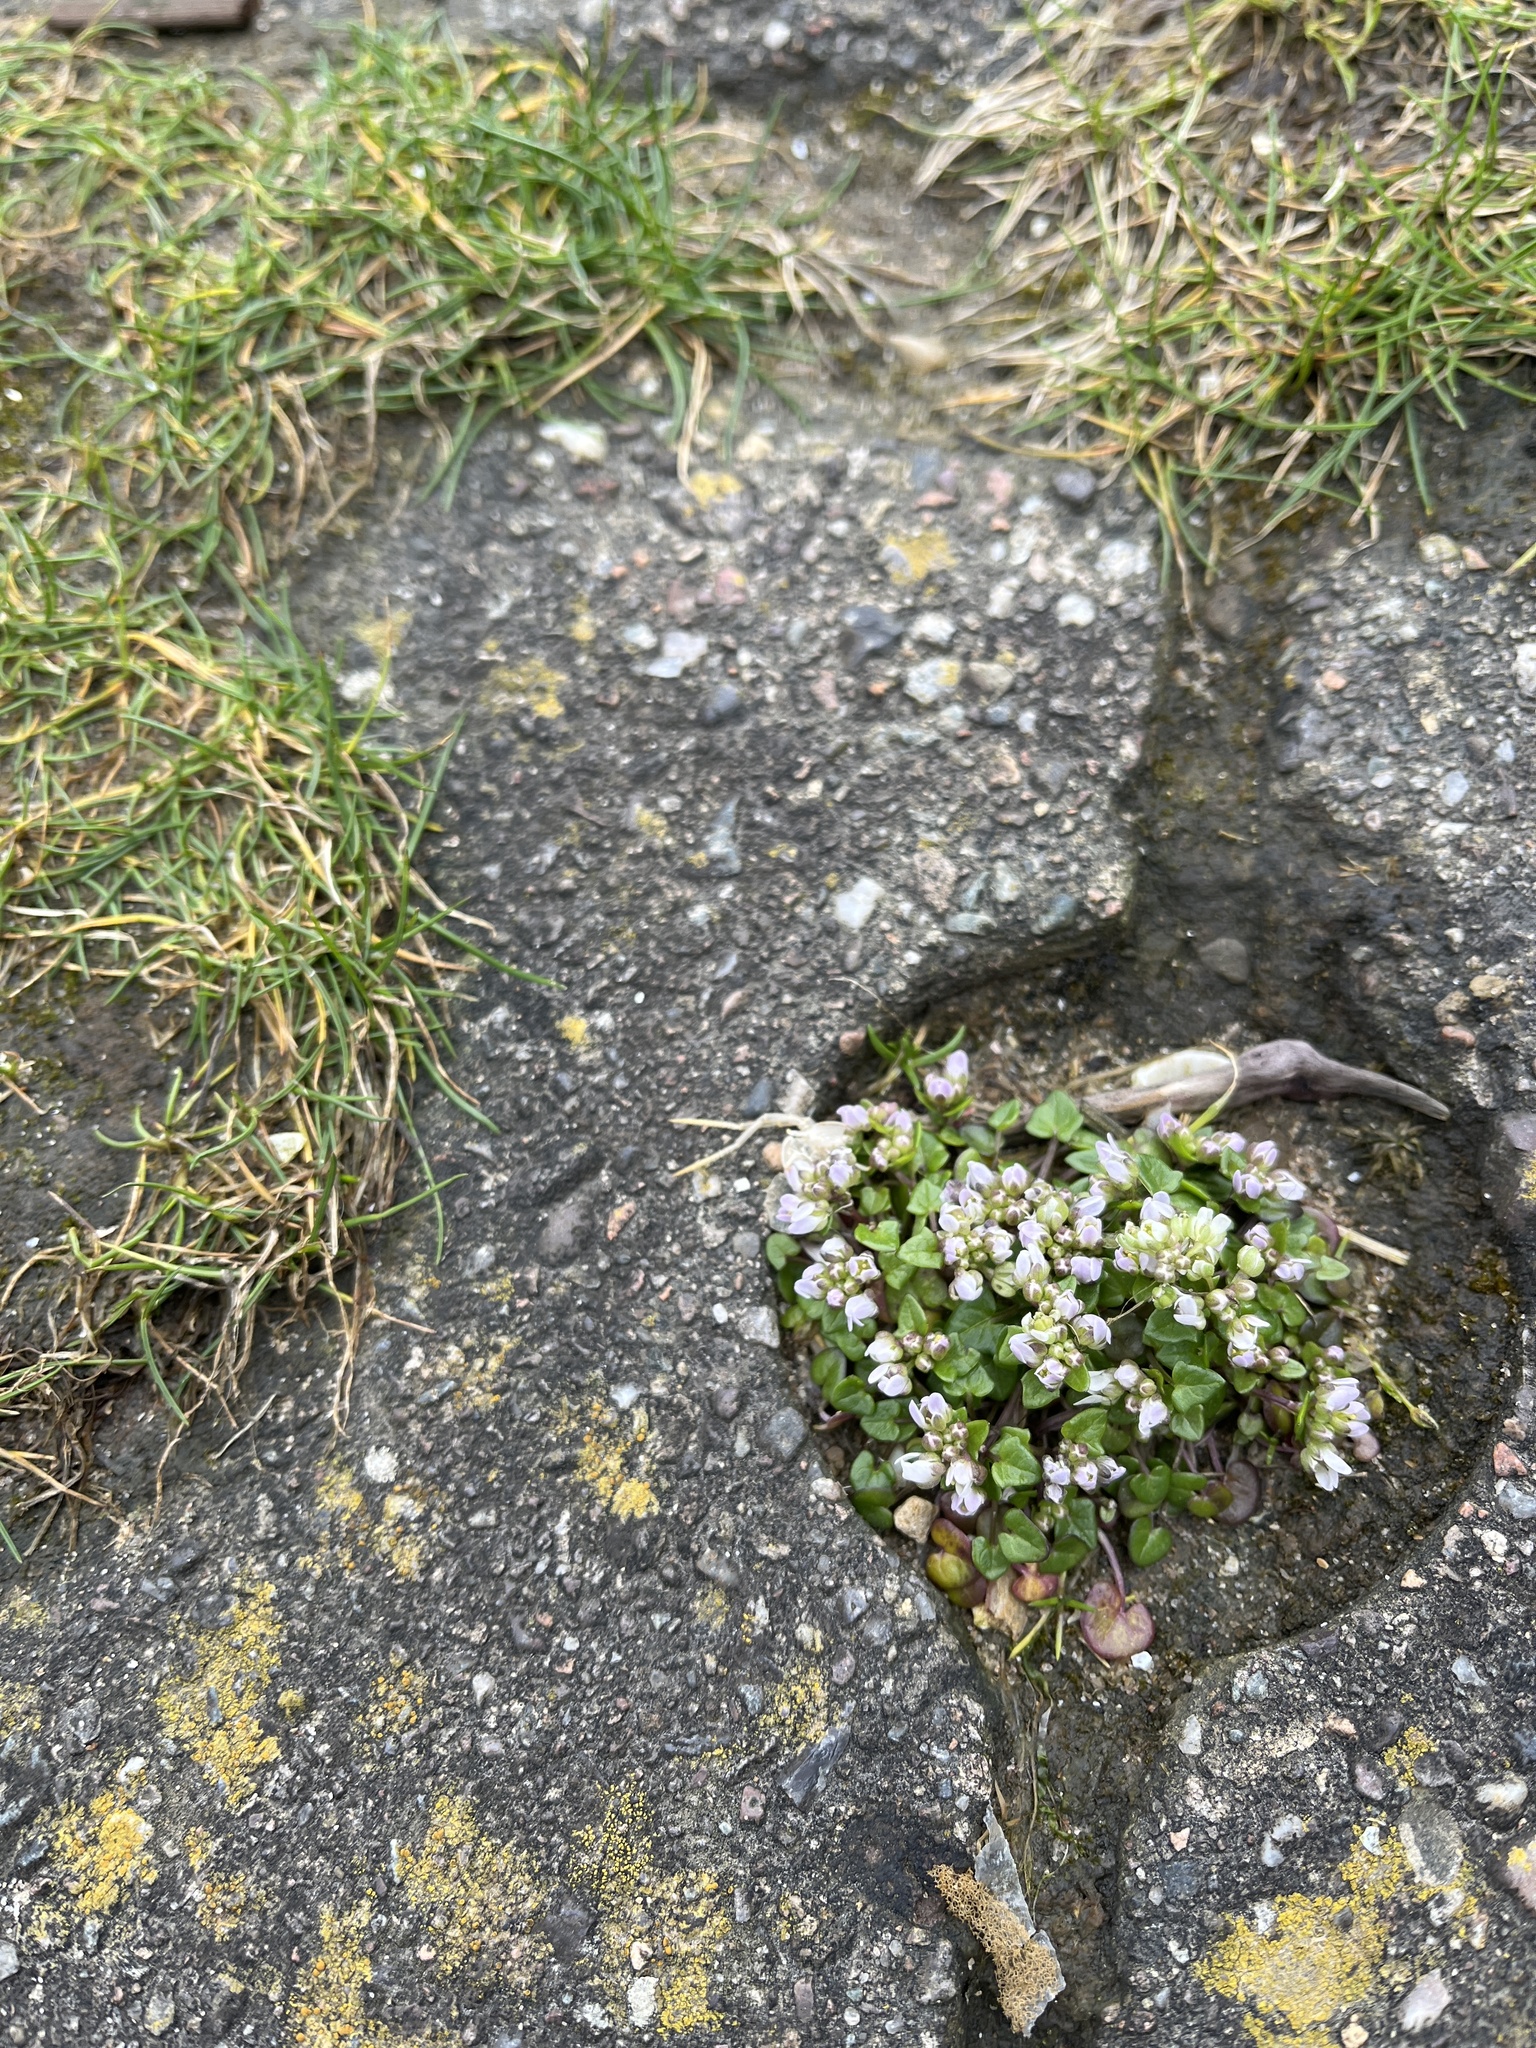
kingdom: Plantae
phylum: Tracheophyta
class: Magnoliopsida
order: Brassicales
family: Brassicaceae
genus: Cochlearia
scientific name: Cochlearia danica
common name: Early scurvygrass
